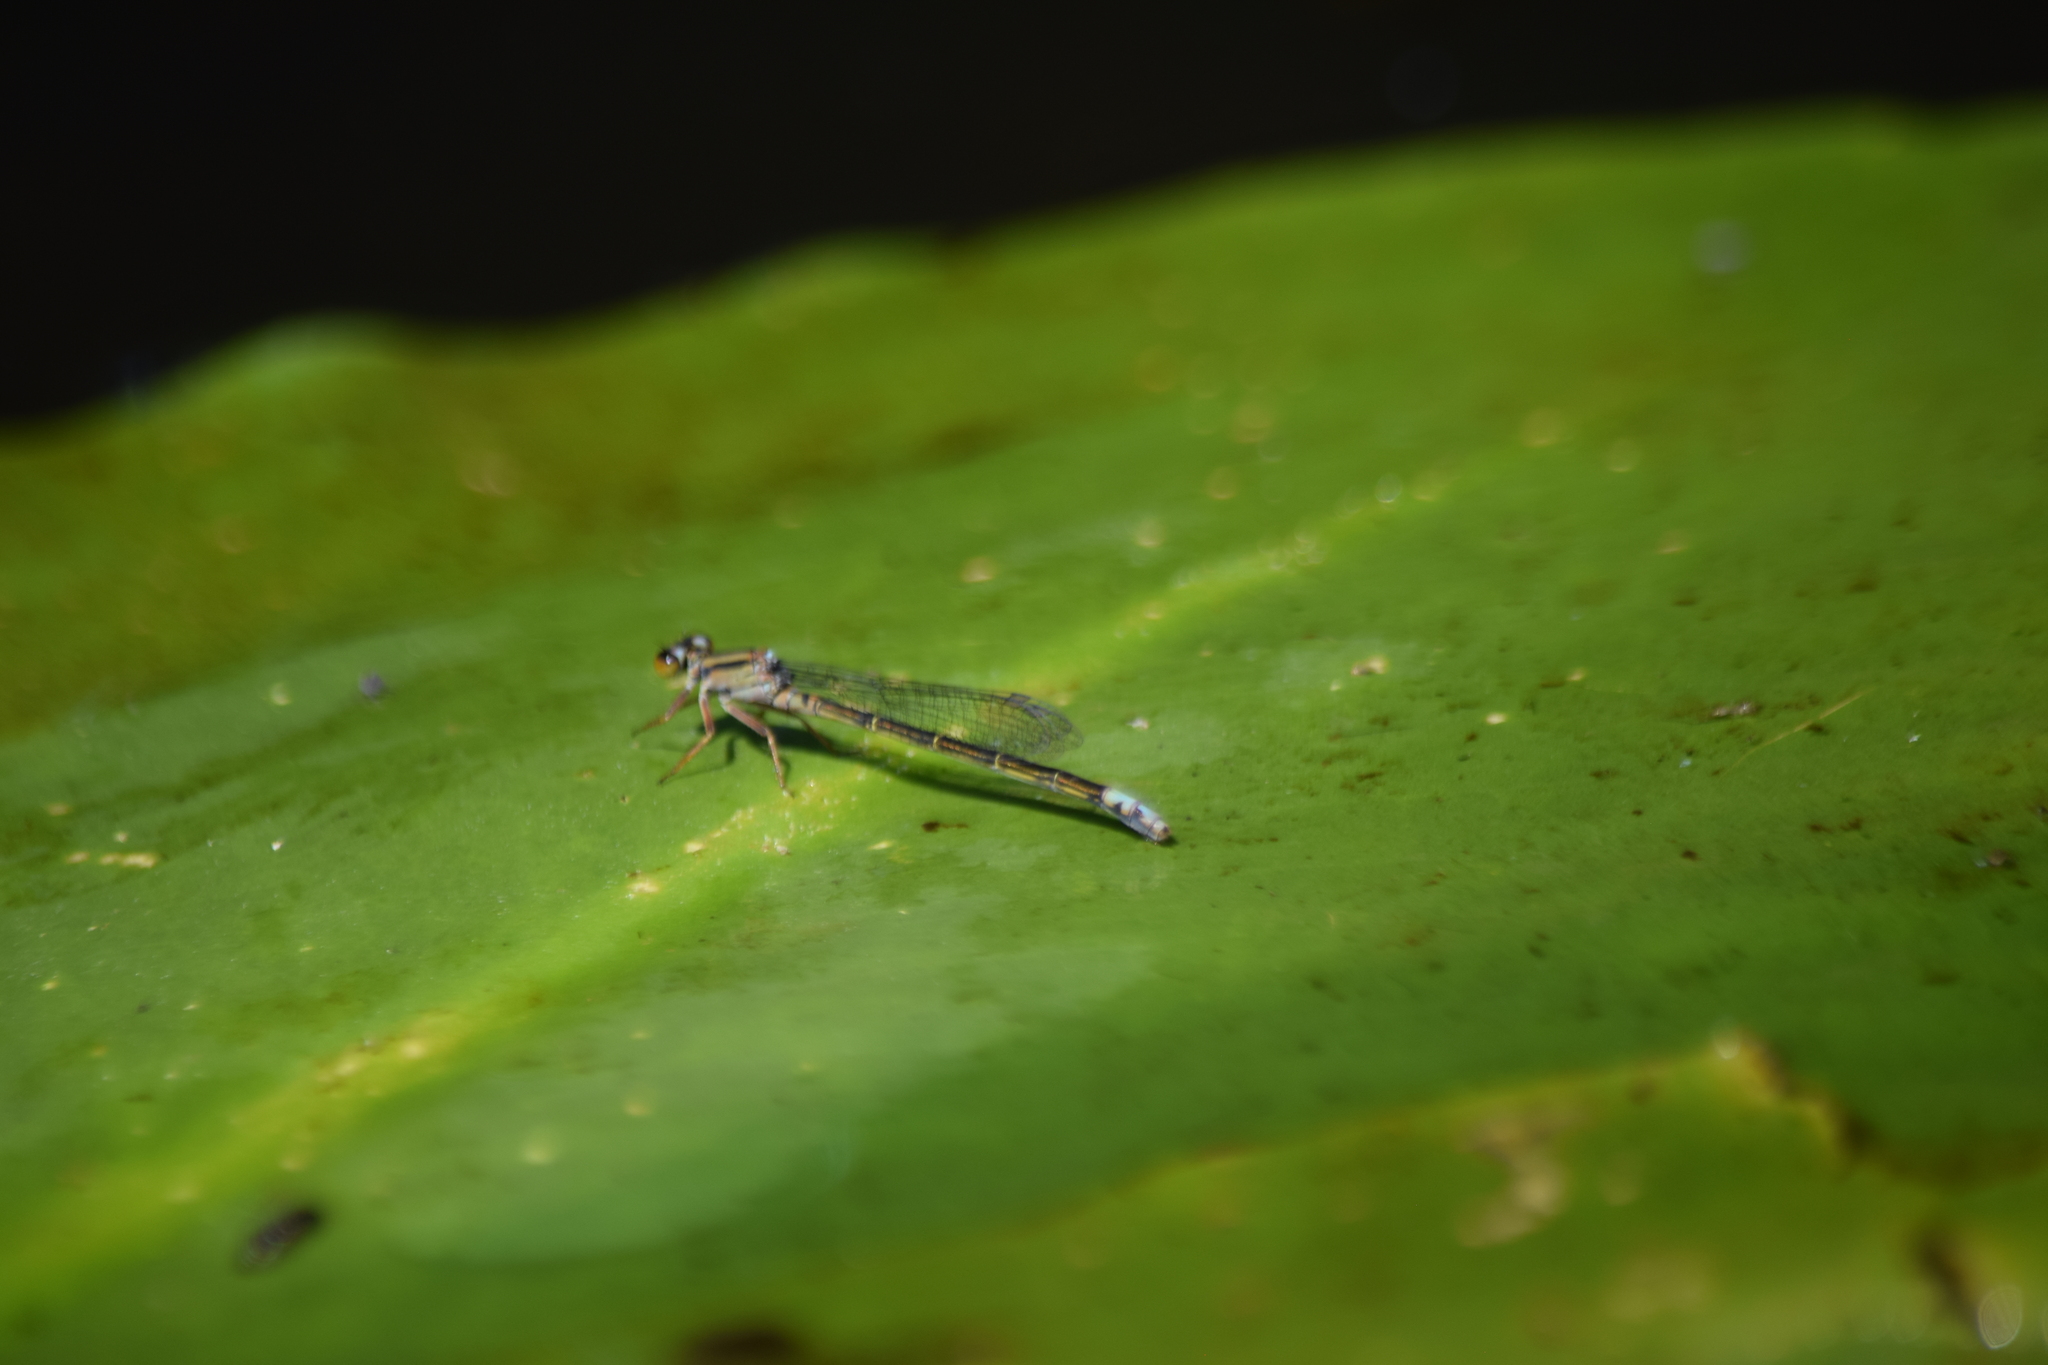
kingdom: Animalia
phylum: Arthropoda
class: Insecta
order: Odonata
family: Coenagrionidae
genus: Ischnura
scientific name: Ischnura kellicotti
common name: Lilypad forktail
